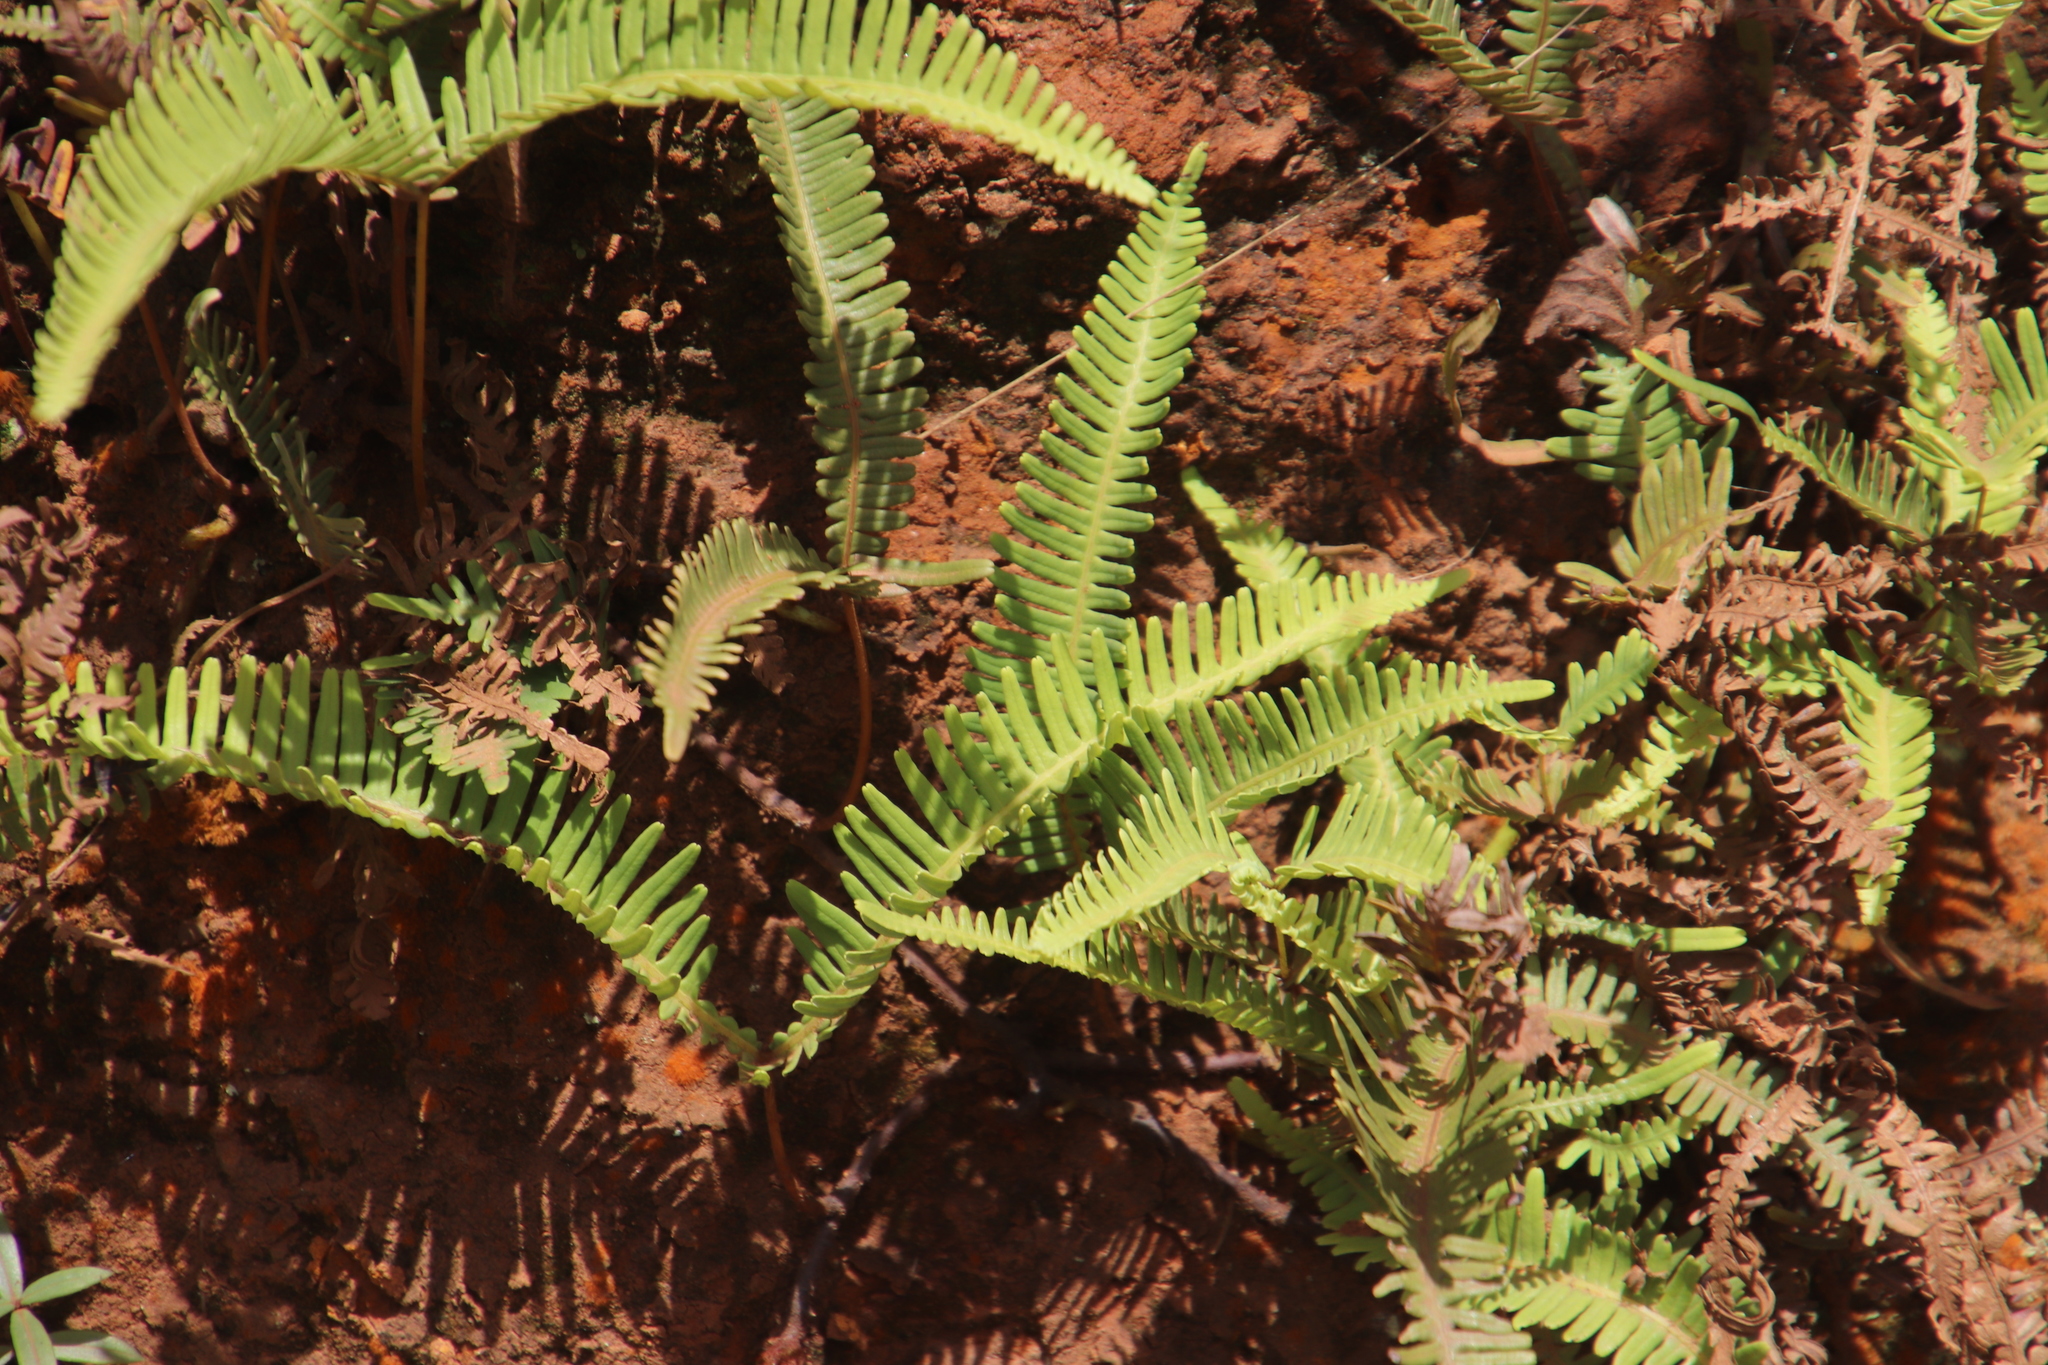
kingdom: Plantae
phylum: Tracheophyta
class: Polypodiopsida
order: Gleicheniales
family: Gleicheniaceae
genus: Dicranopteris
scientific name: Dicranopteris linearis
